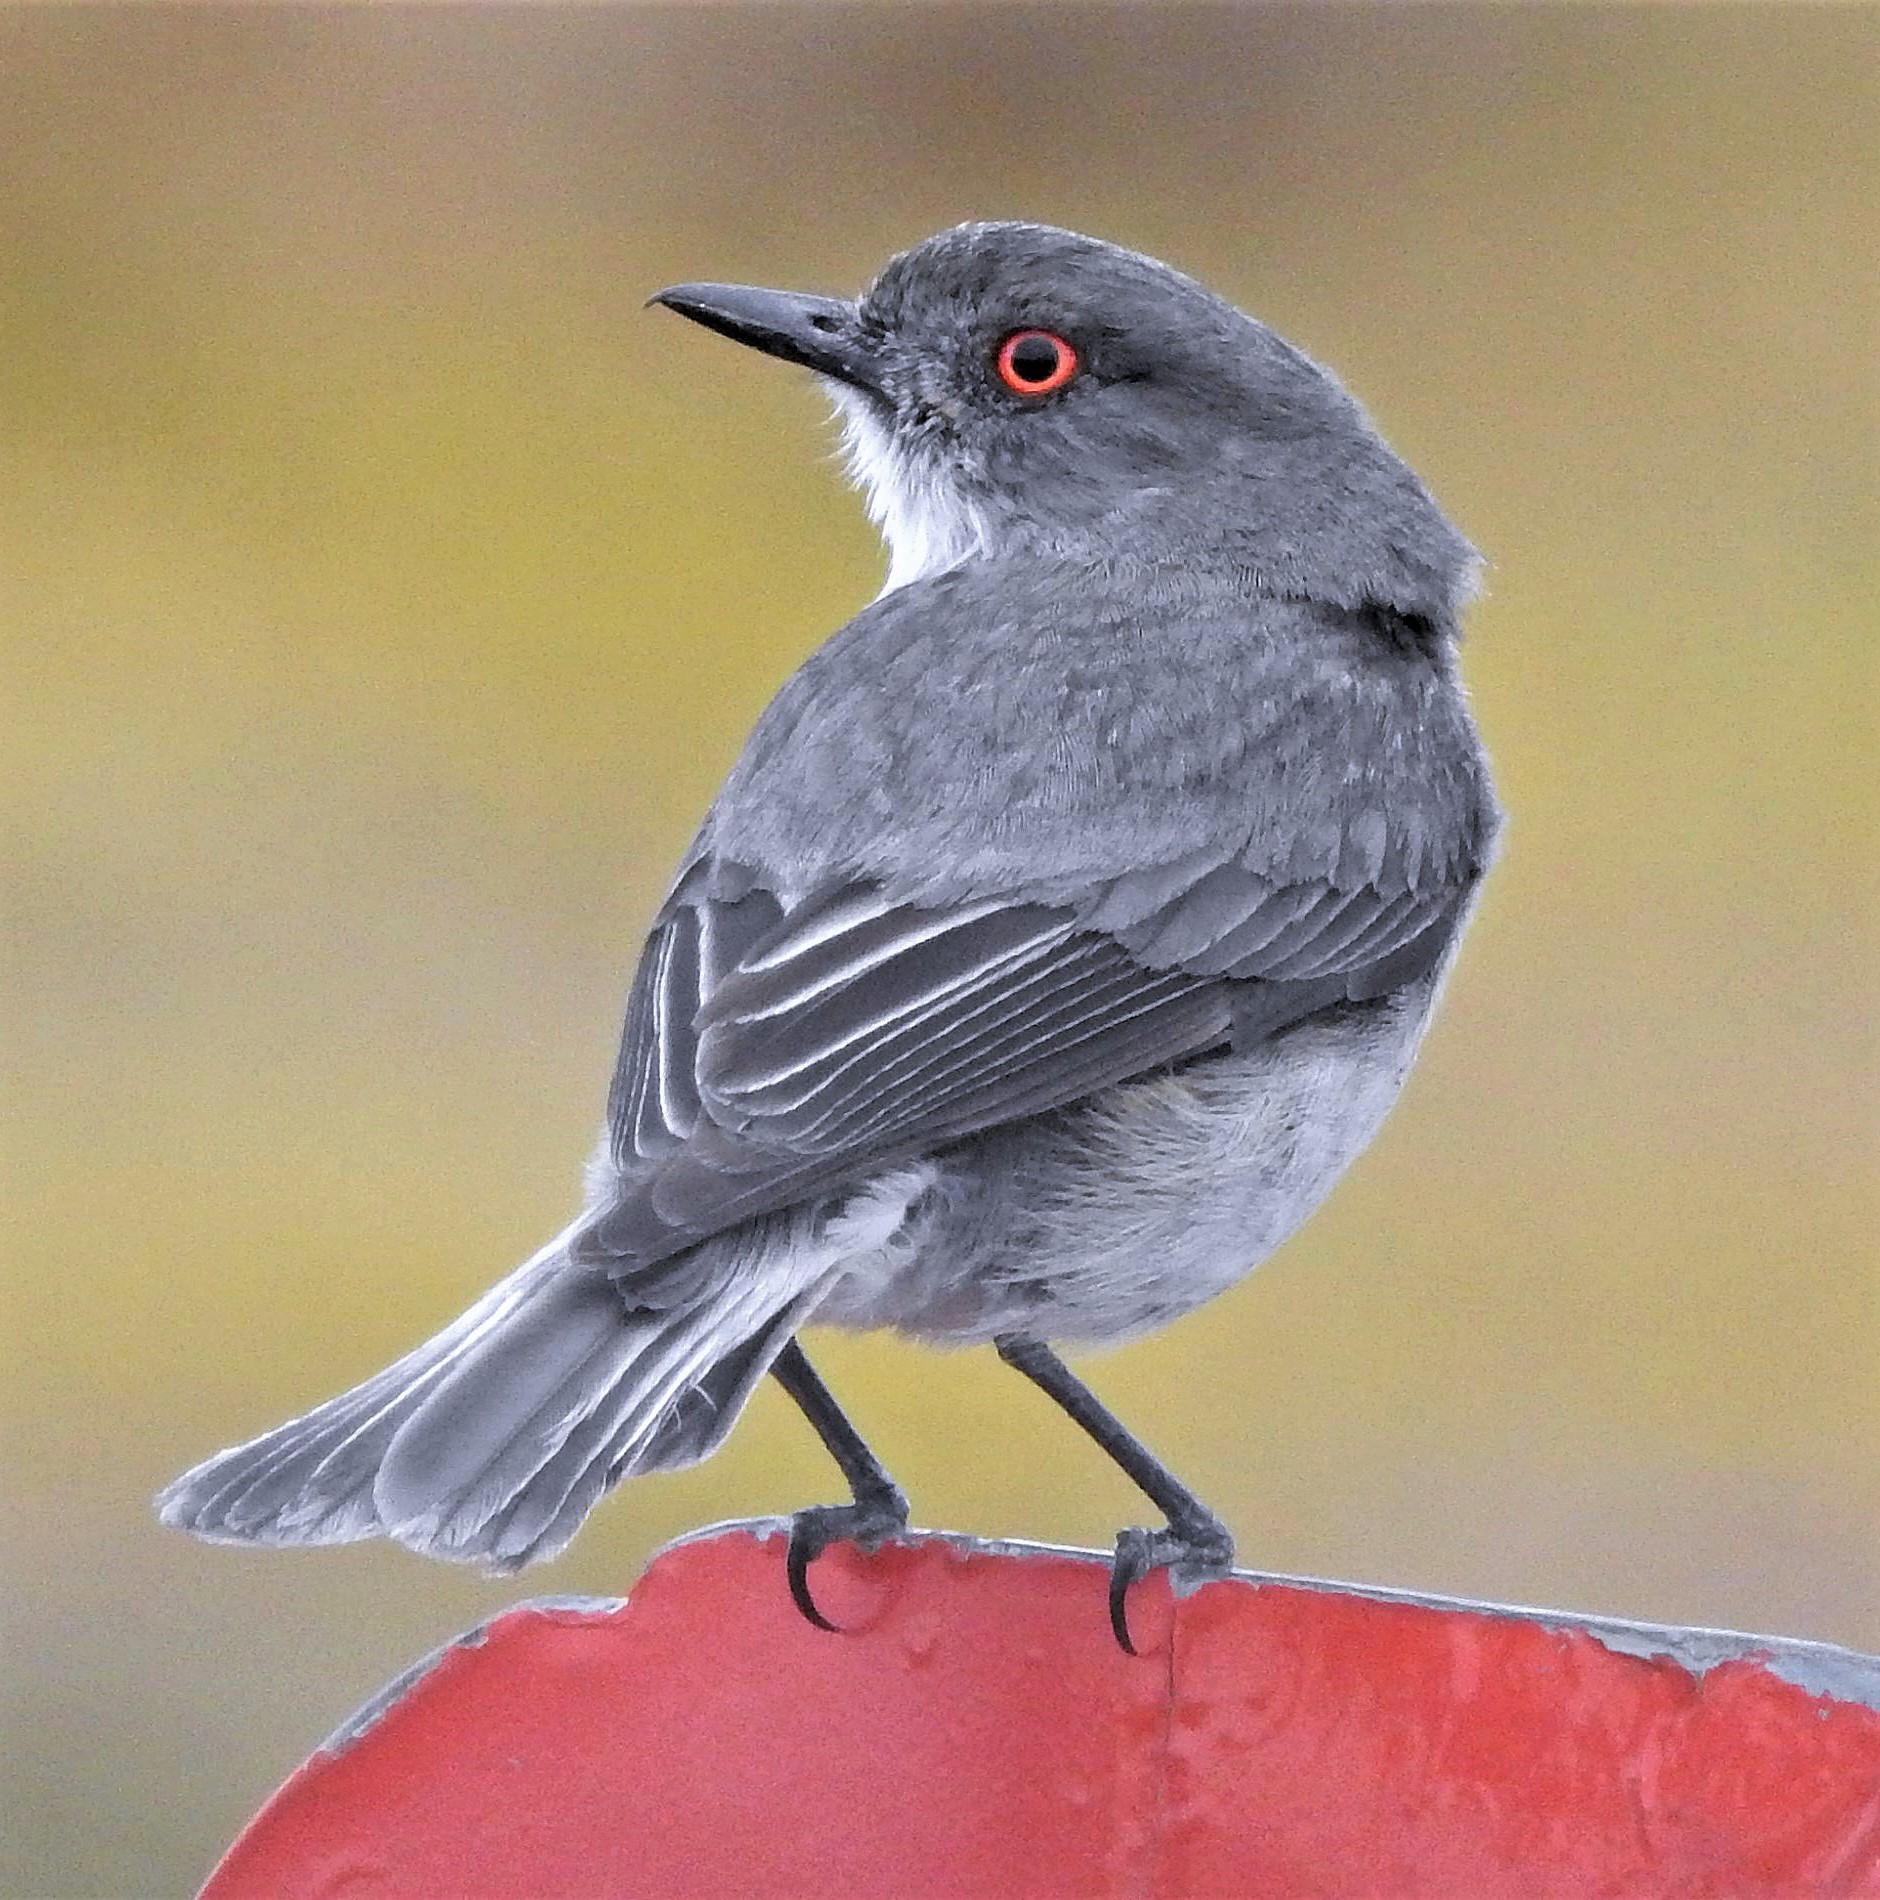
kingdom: Animalia
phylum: Chordata
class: Aves
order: Passeriformes
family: Tyrannidae
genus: Xolmis
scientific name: Xolmis pyrope
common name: Fire-eyed diucon
